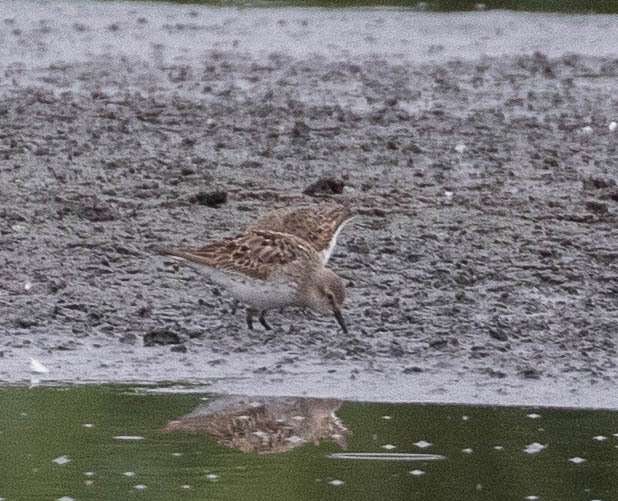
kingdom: Animalia
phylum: Chordata
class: Aves
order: Charadriiformes
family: Scolopacidae
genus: Calidris
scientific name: Calidris fuscicollis
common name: White-rumped sandpiper
